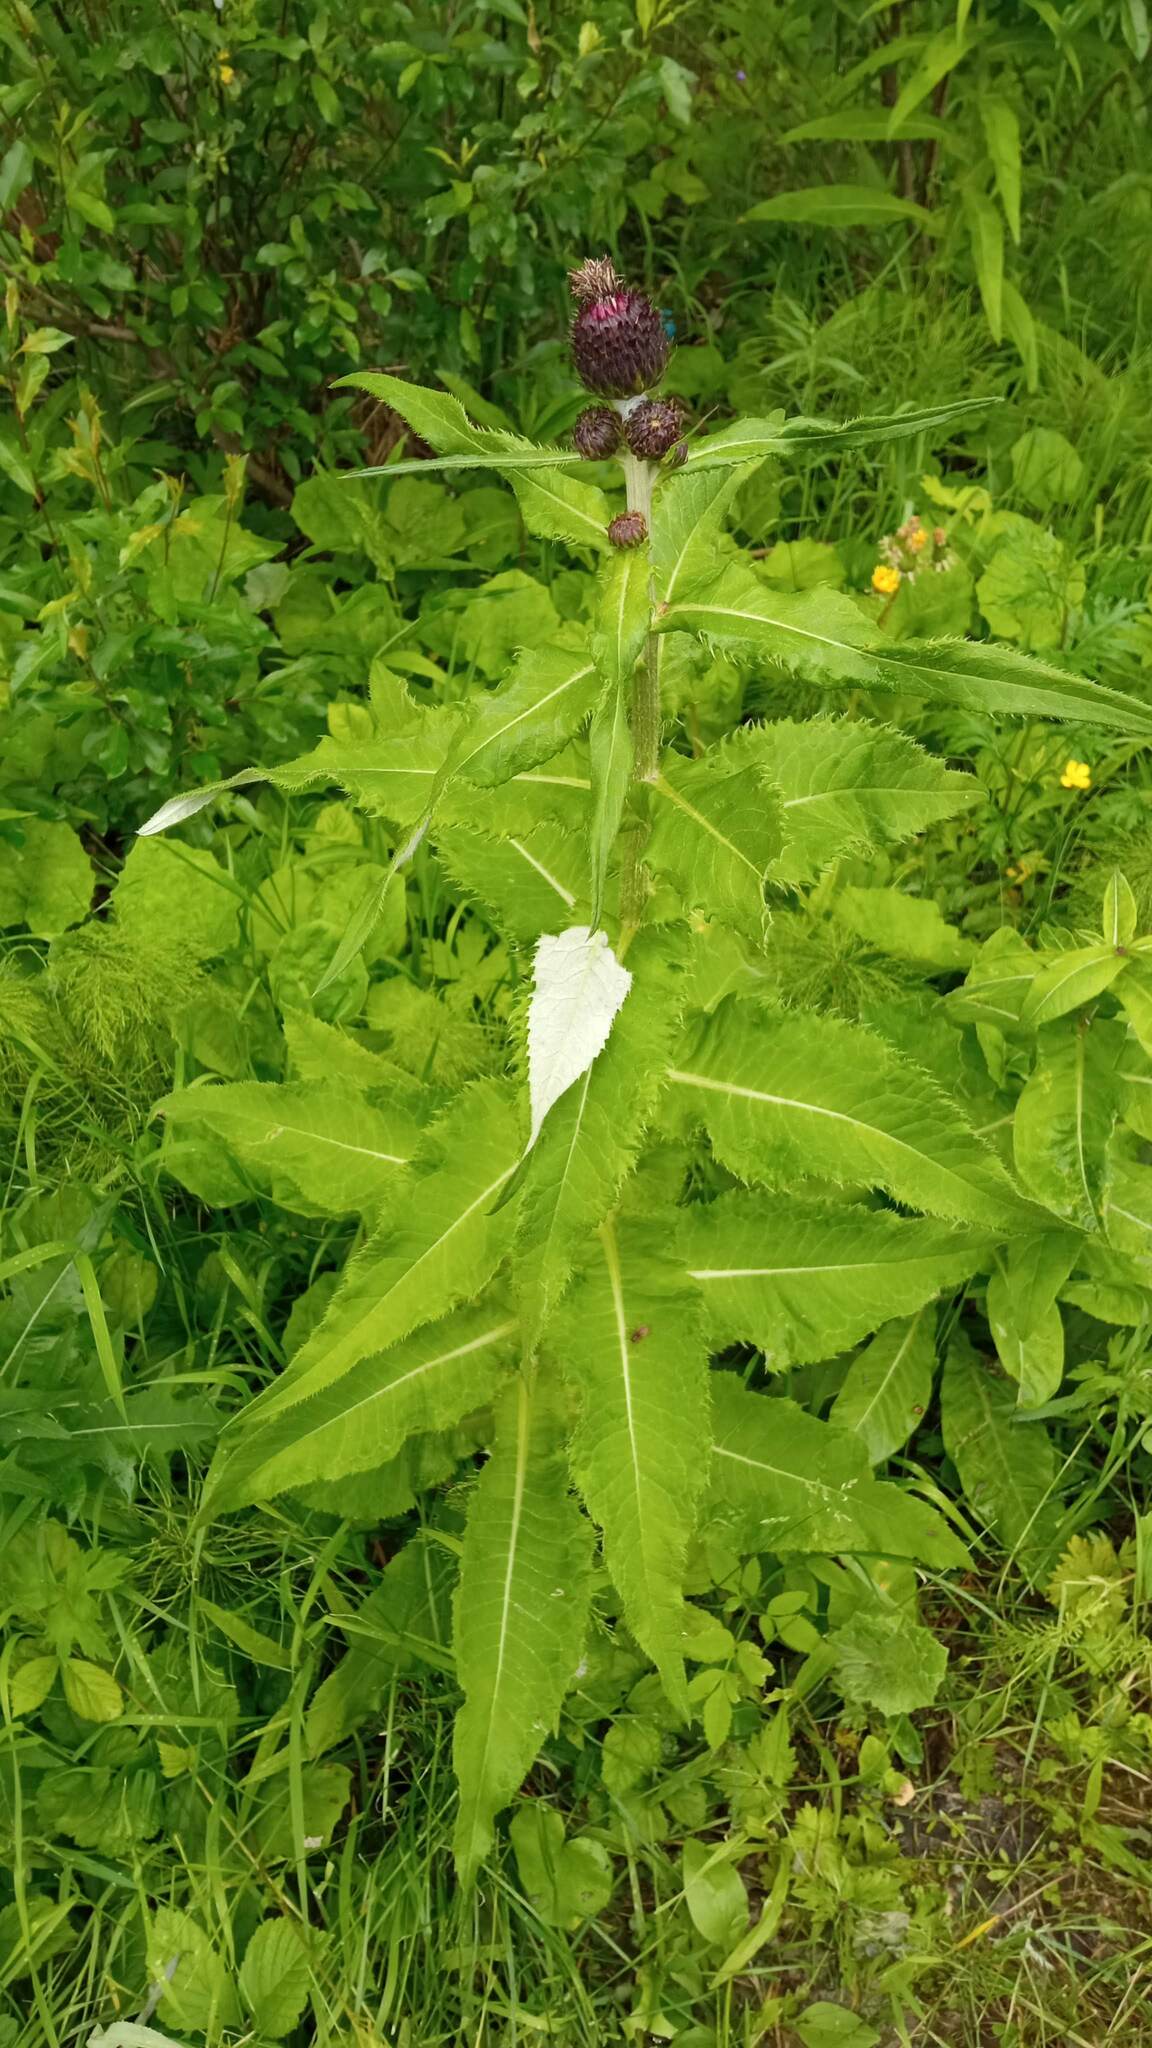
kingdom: Plantae
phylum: Tracheophyta
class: Magnoliopsida
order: Asterales
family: Asteraceae
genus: Cirsium
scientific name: Cirsium helenioides
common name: Melancholy thistle
